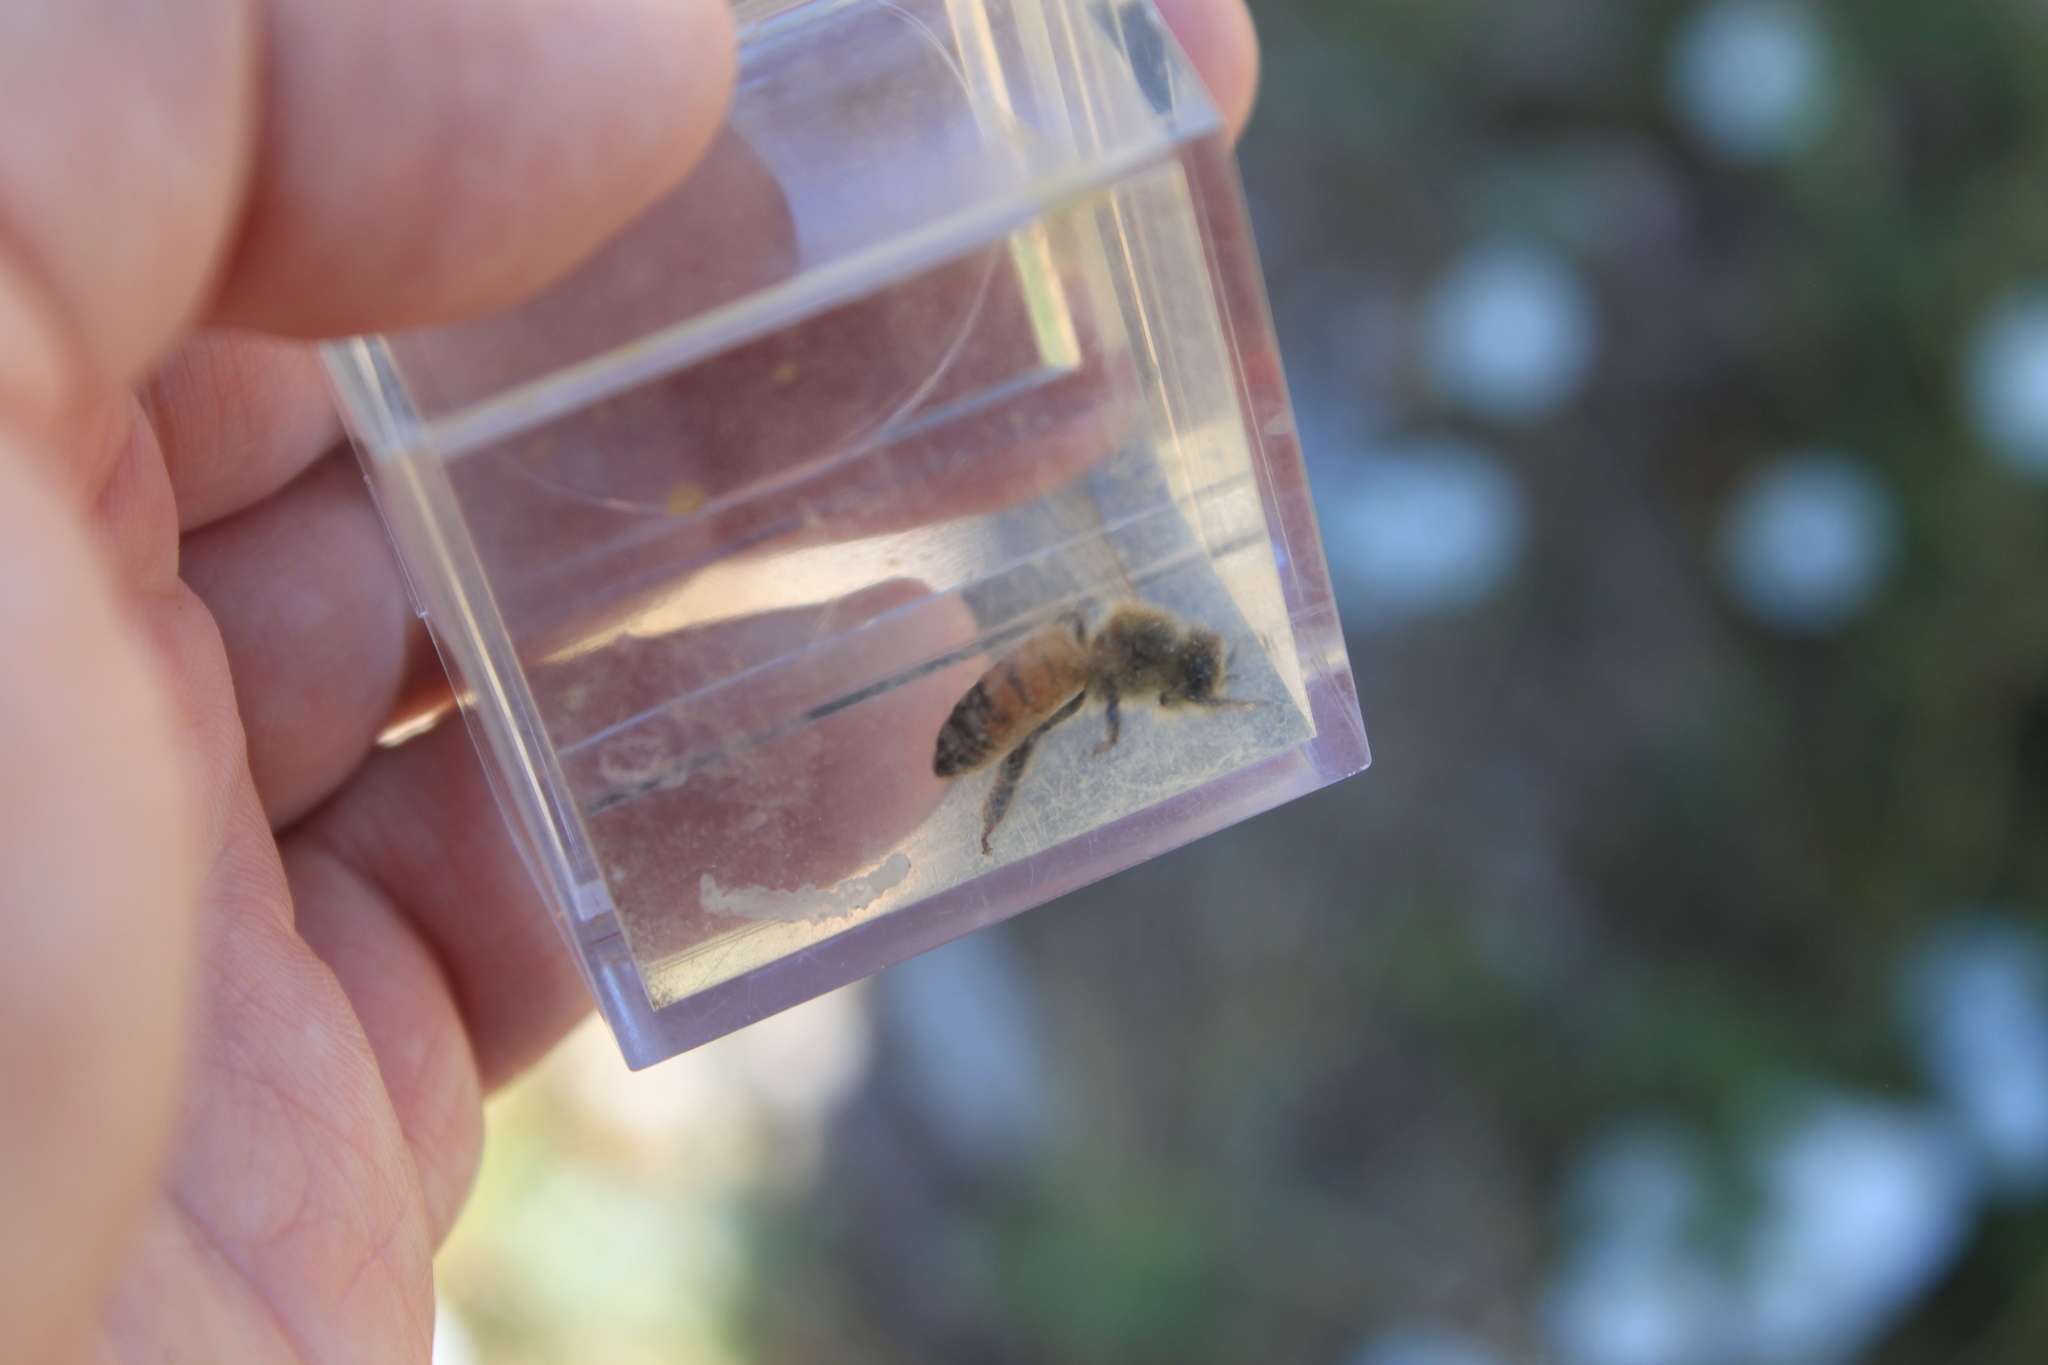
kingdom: Animalia
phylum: Arthropoda
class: Insecta
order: Hymenoptera
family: Apidae
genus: Apis
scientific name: Apis mellifera
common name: Honey bee
